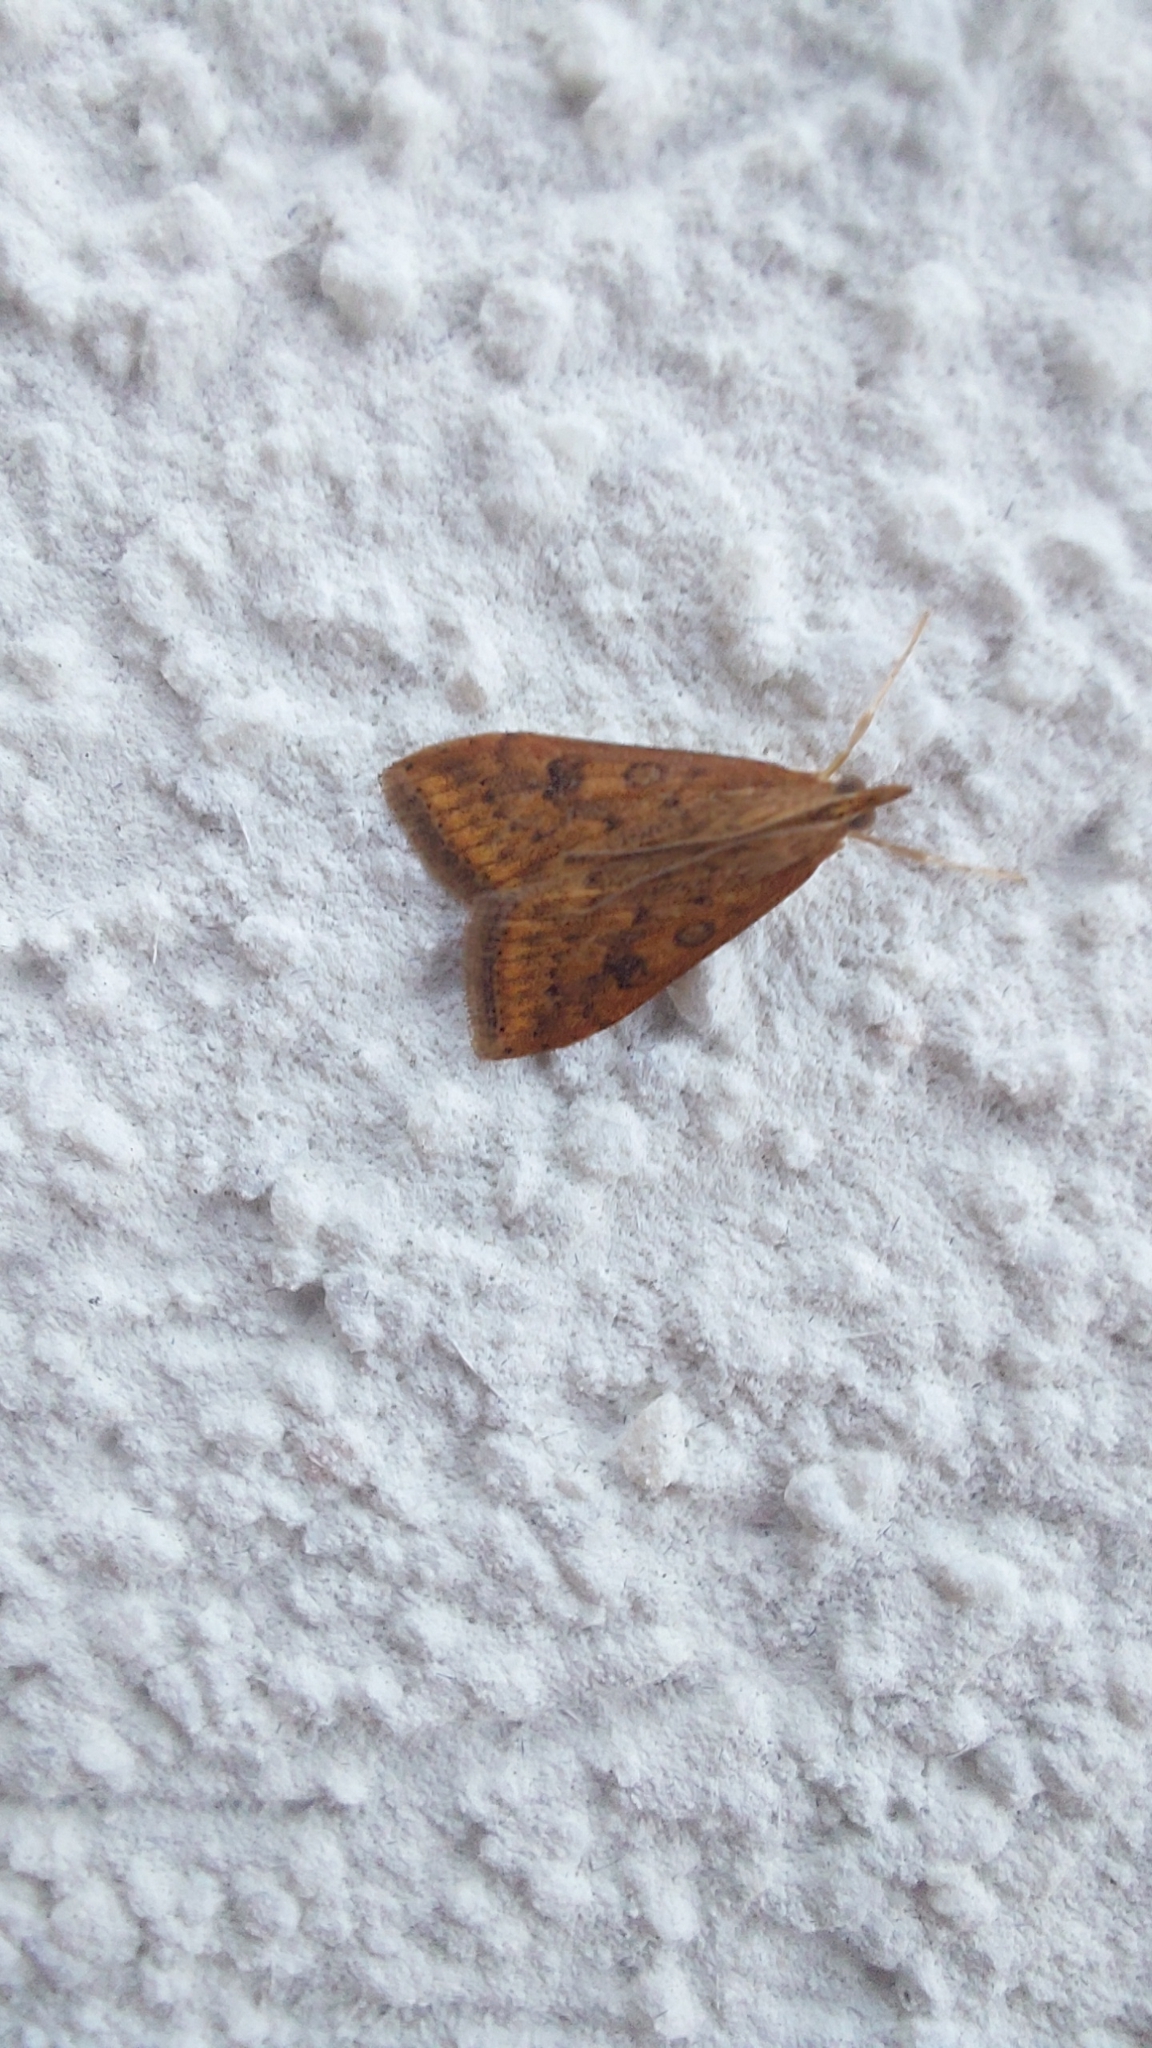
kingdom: Animalia
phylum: Arthropoda
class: Insecta
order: Lepidoptera
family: Crambidae
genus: Udea
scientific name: Udea ferrugalis
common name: Rusty dot
